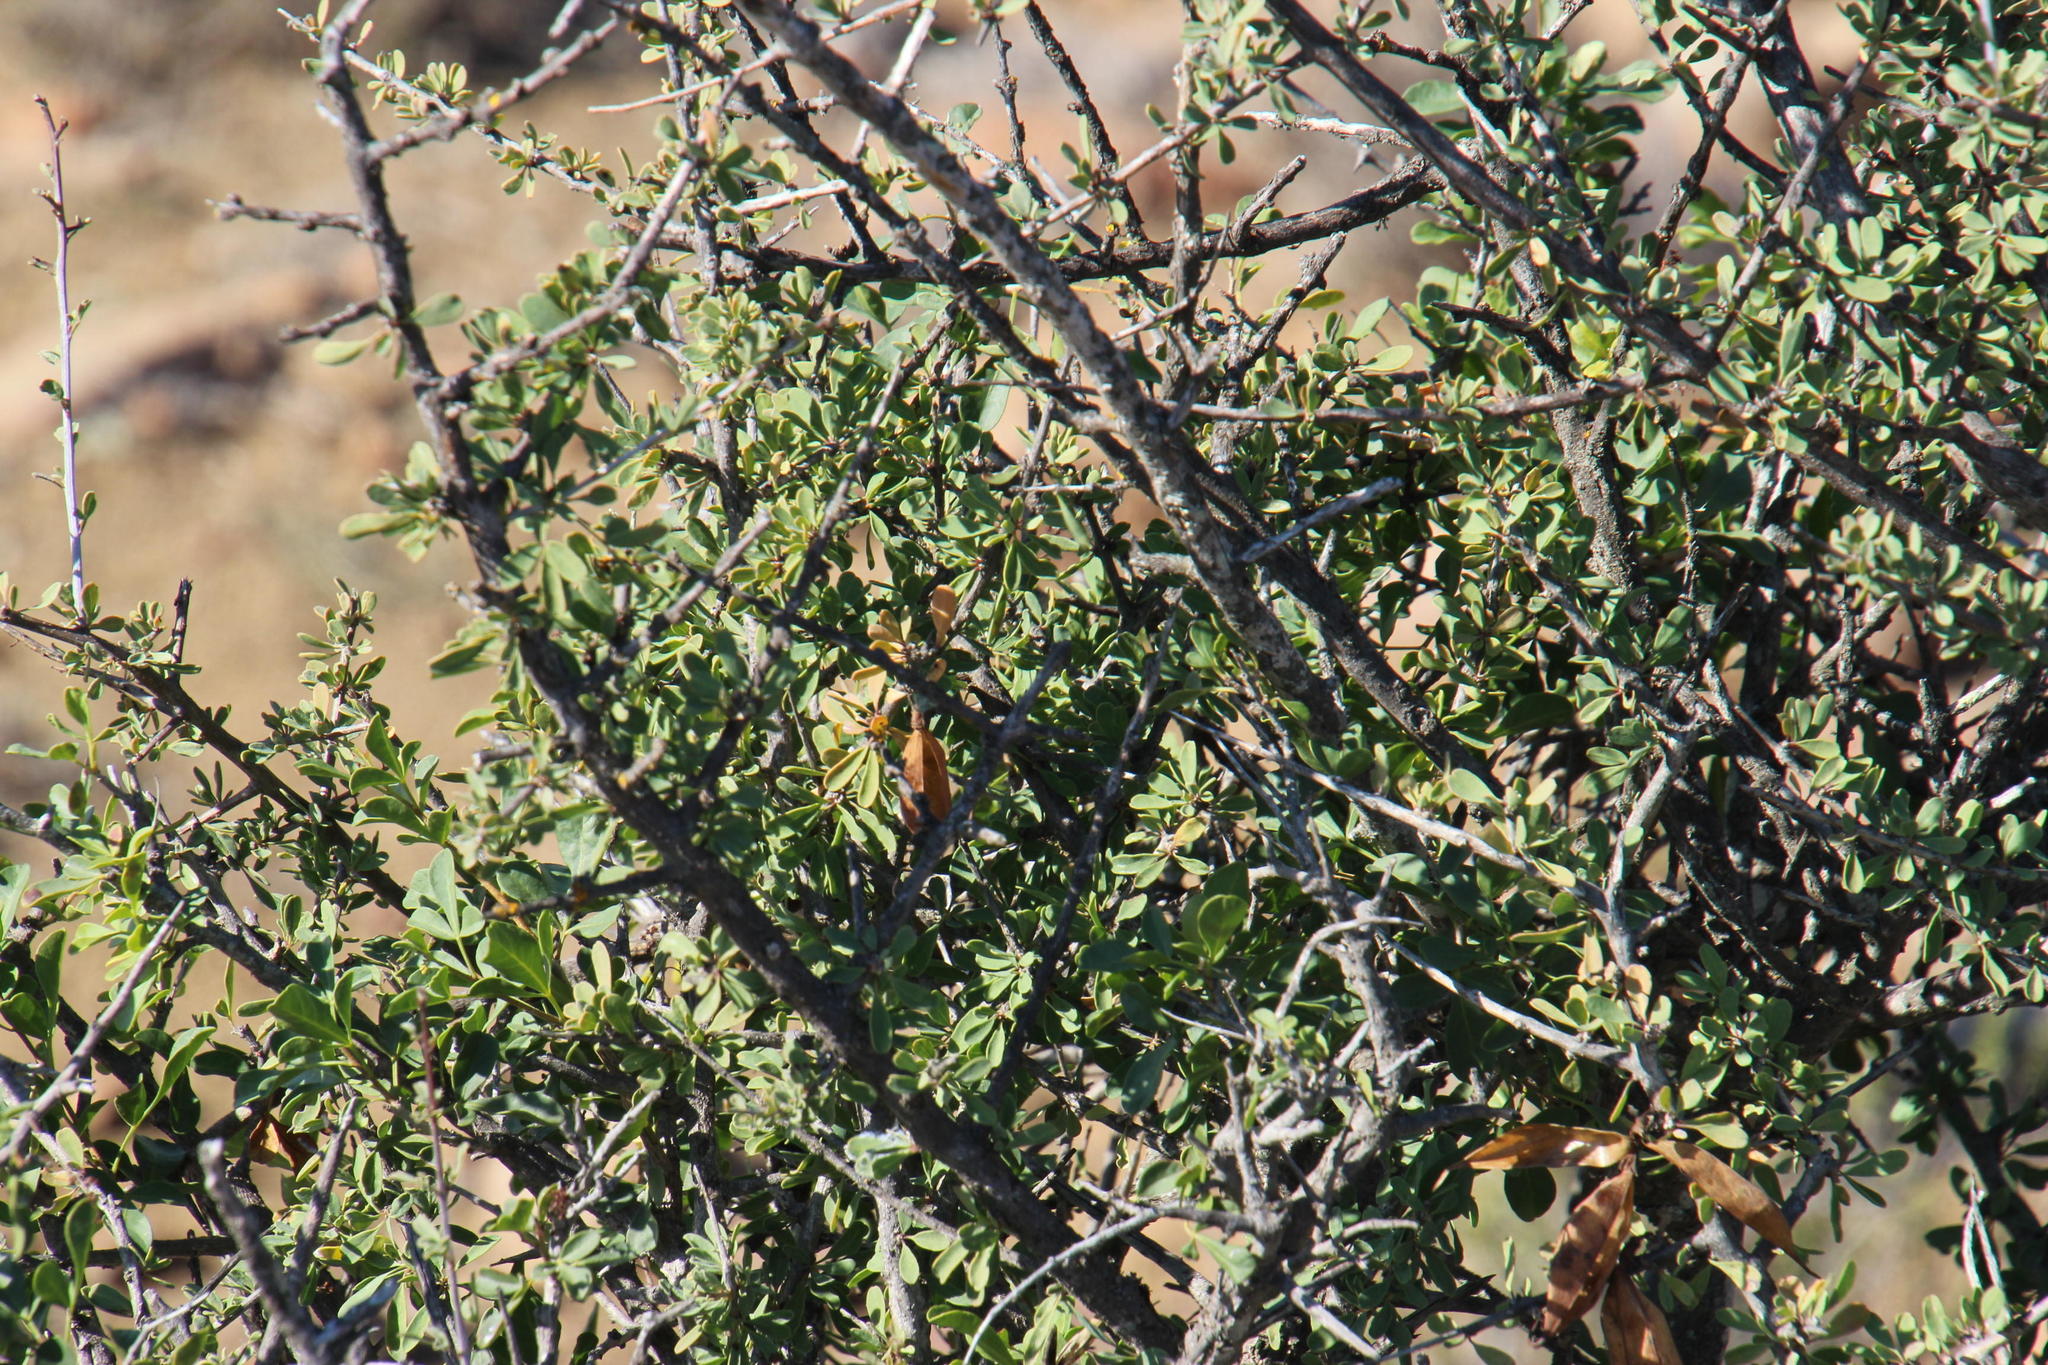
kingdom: Plantae
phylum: Tracheophyta
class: Magnoliopsida
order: Lamiales
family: Bignoniaceae
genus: Rhigozum
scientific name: Rhigozum obovatum
